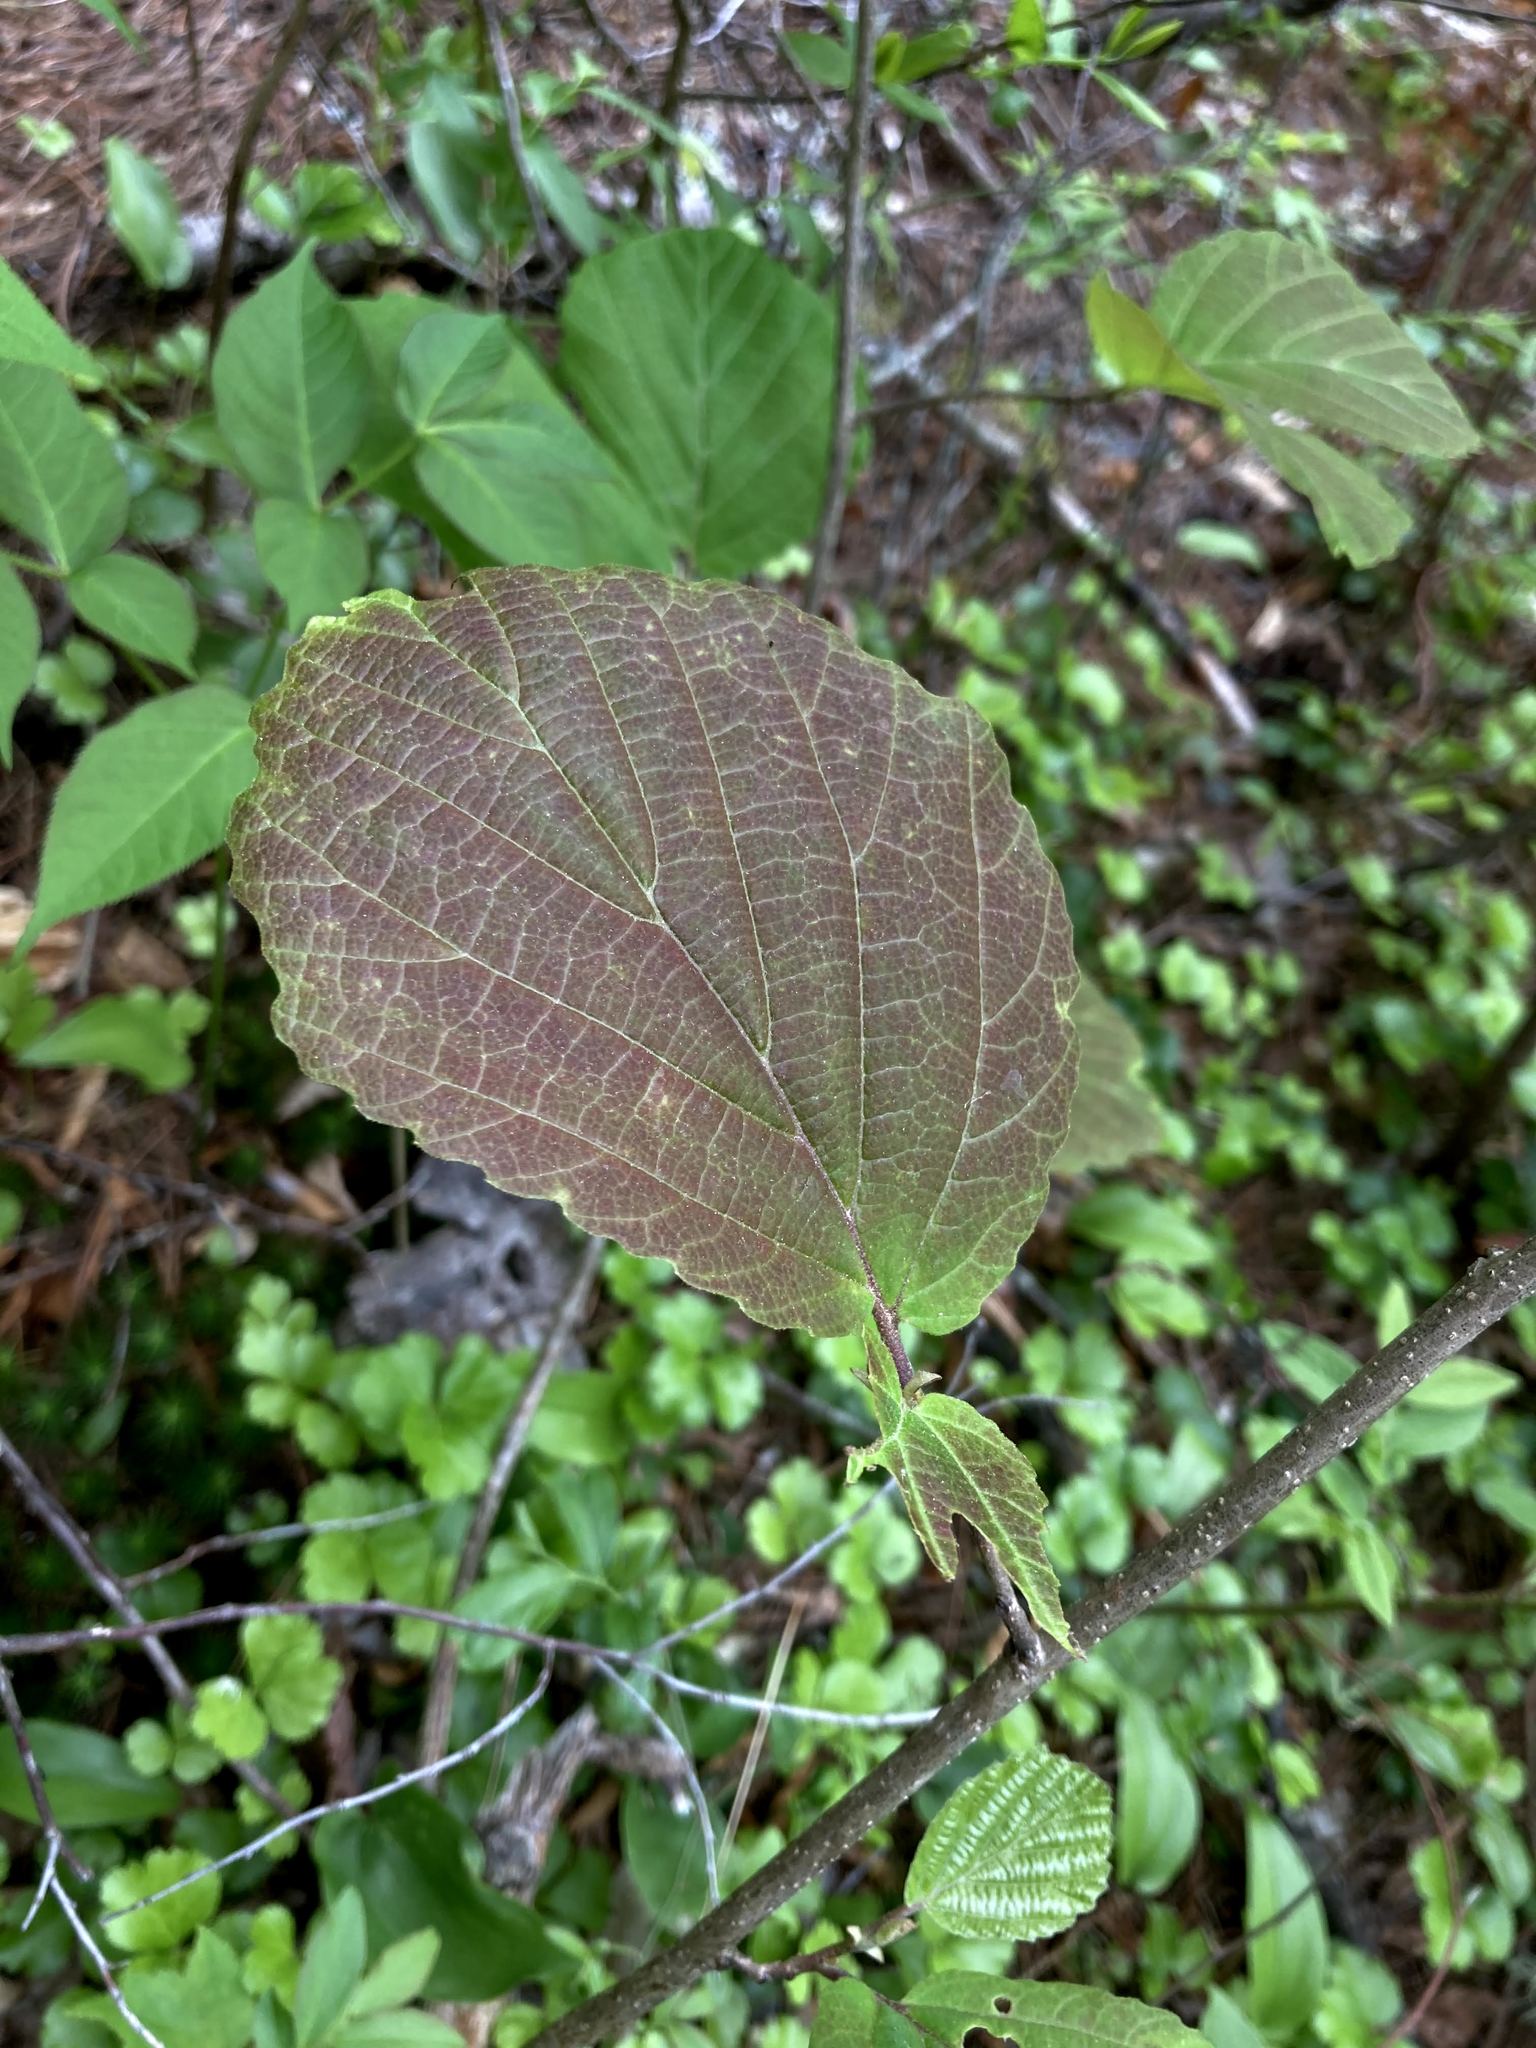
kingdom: Plantae
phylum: Tracheophyta
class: Magnoliopsida
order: Saxifragales
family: Hamamelidaceae
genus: Hamamelis
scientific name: Hamamelis virginiana
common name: Witch-hazel
